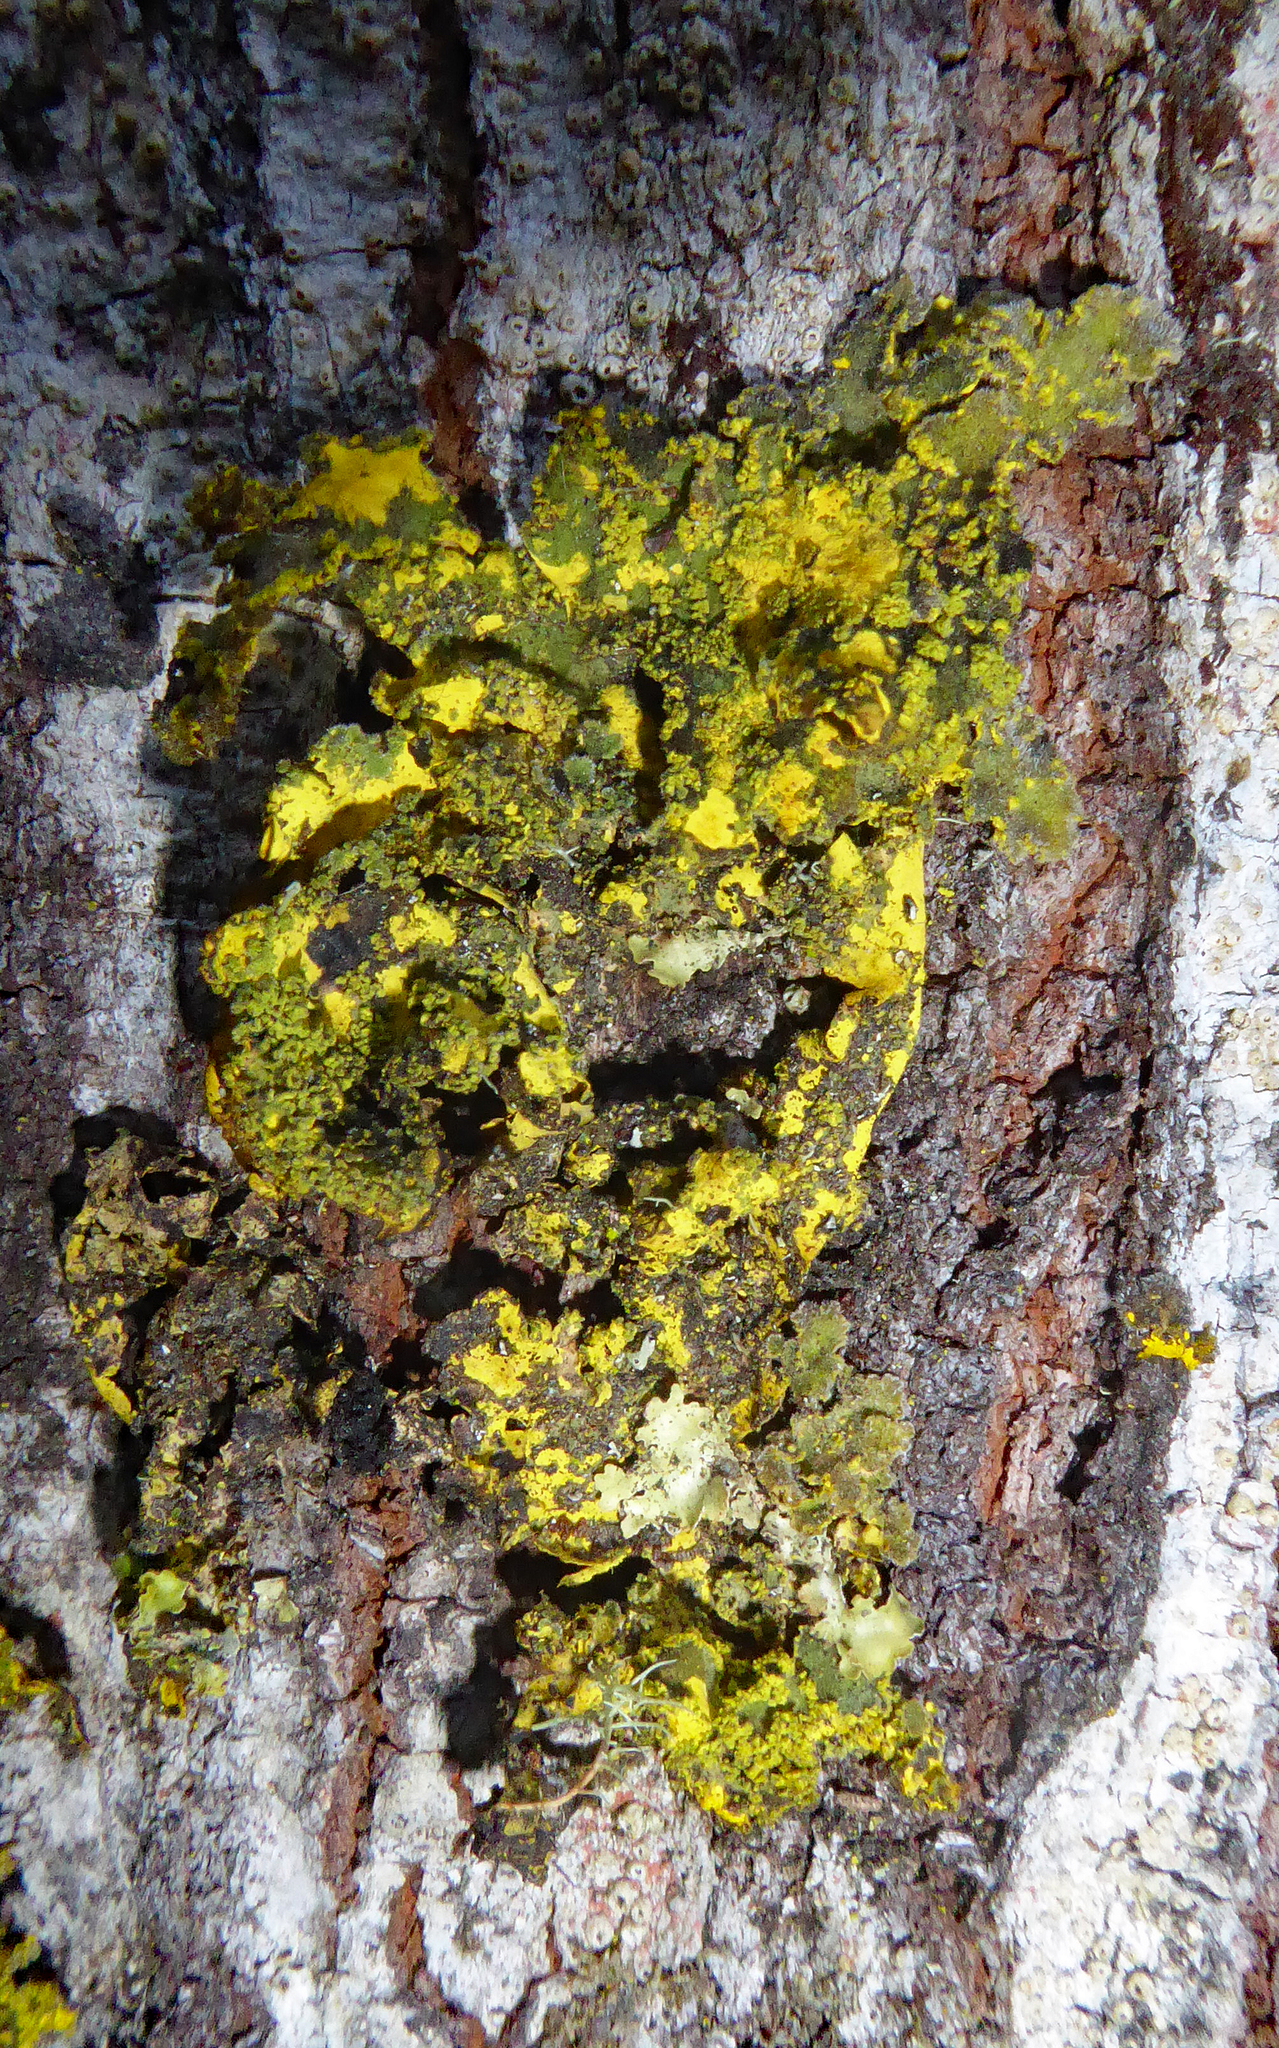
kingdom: Fungi
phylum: Ascomycota
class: Lecanoromycetes
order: Peltigerales
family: Lobariaceae
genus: Pseudocyphellaria
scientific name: Pseudocyphellaria rubella
